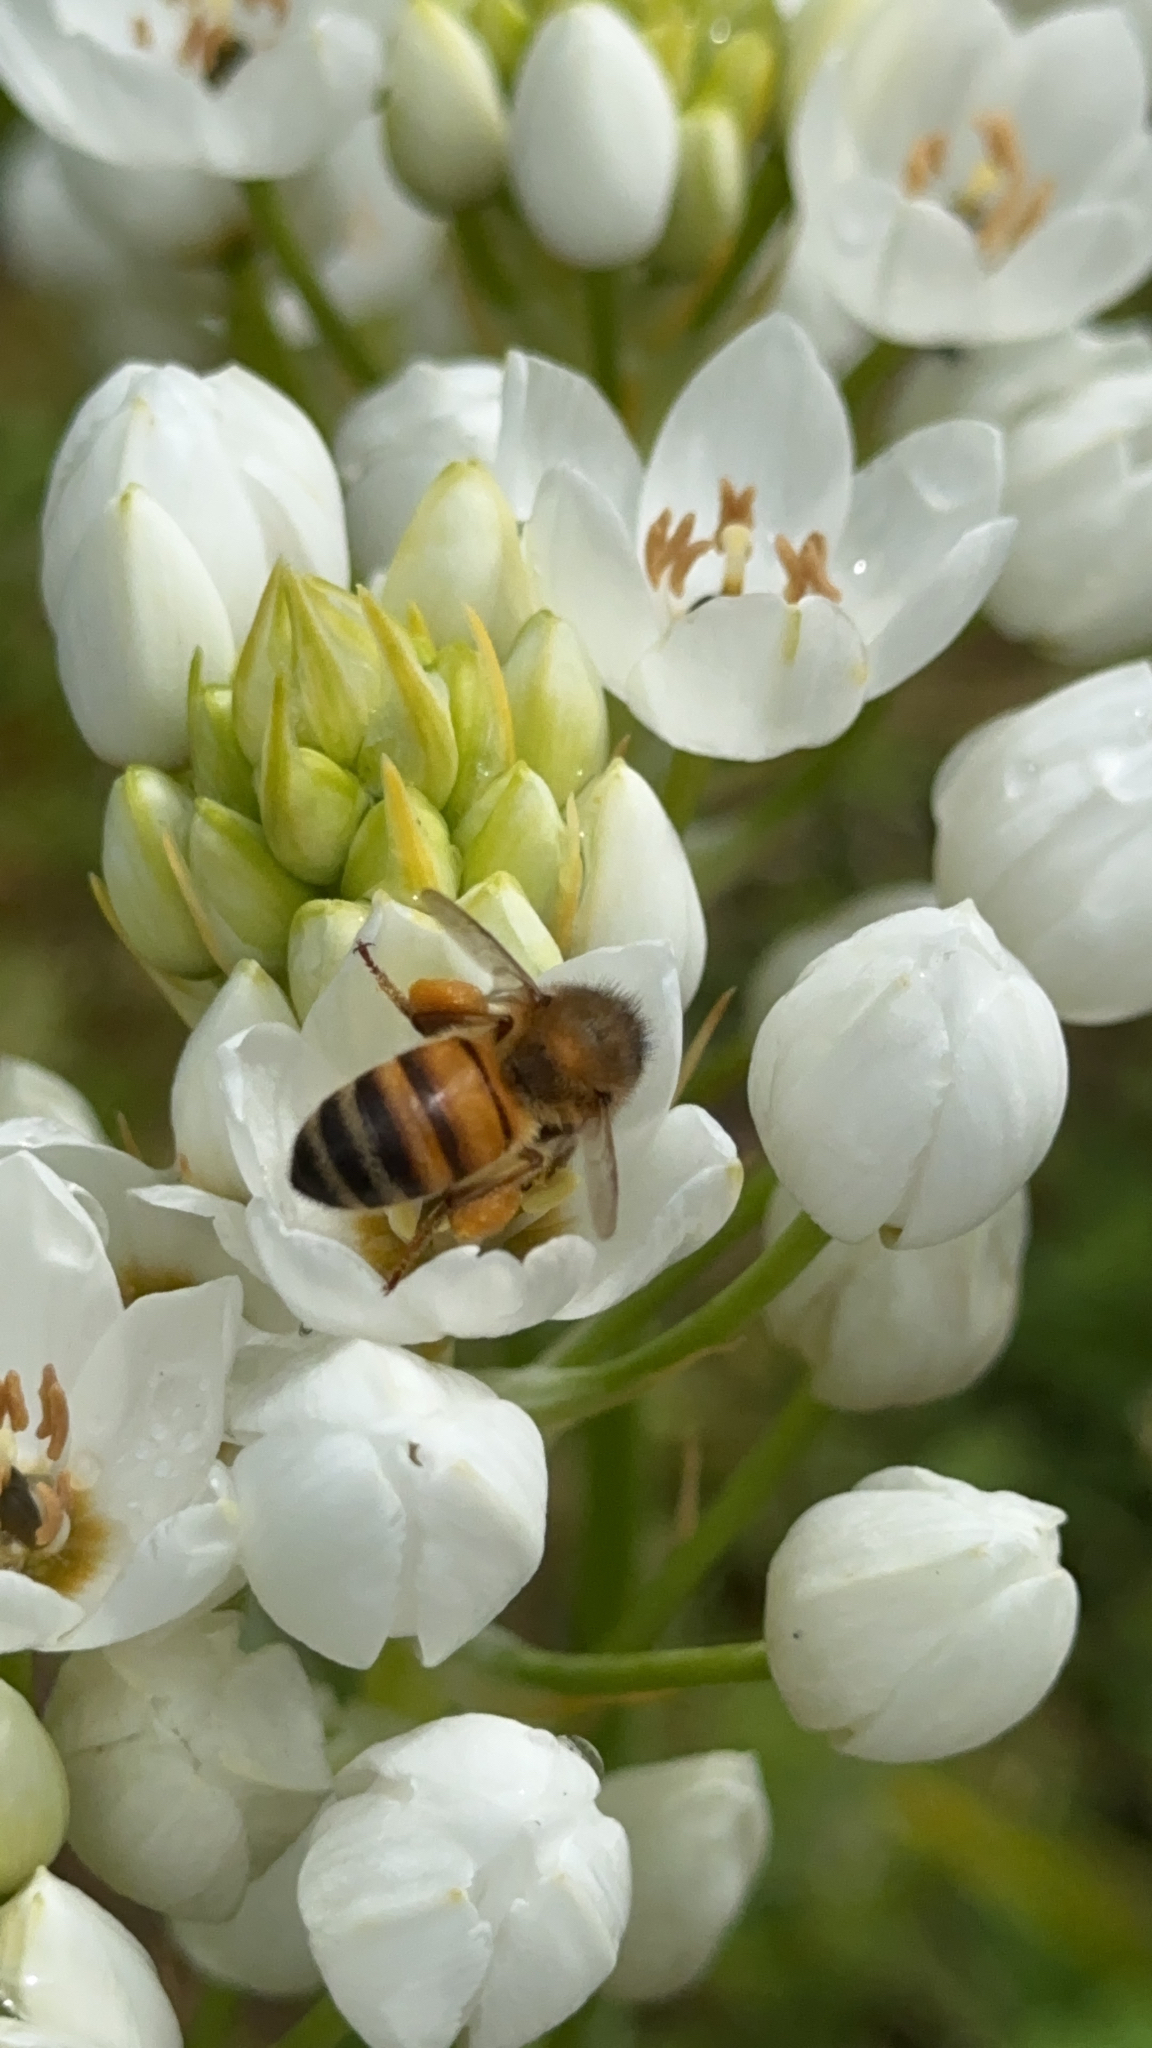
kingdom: Animalia
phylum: Arthropoda
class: Insecta
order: Hymenoptera
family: Apidae
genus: Apis
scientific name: Apis mellifera
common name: Honey bee
